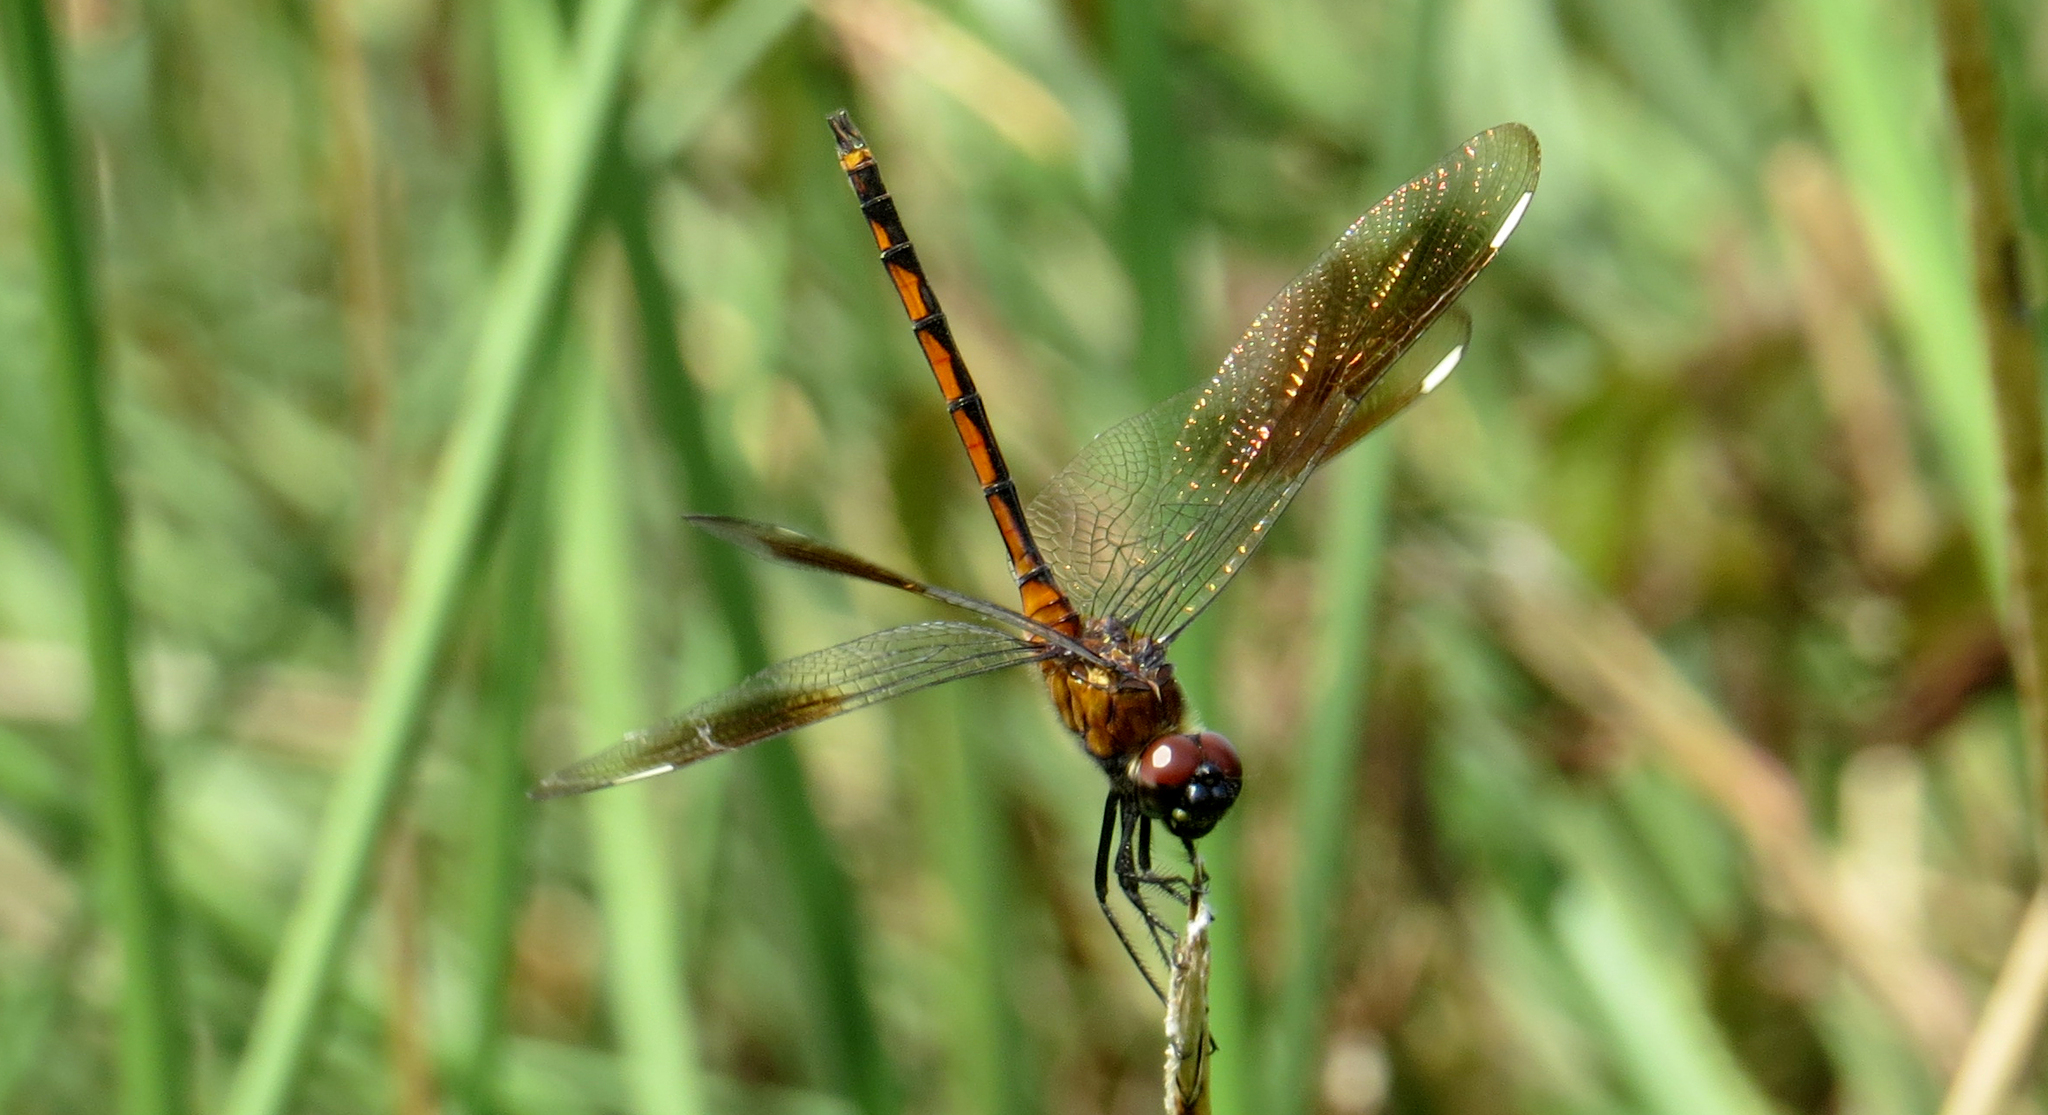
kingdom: Animalia
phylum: Arthropoda
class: Insecta
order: Odonata
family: Libellulidae
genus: Brachymesia
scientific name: Brachymesia gravida
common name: Four-spotted pennant
